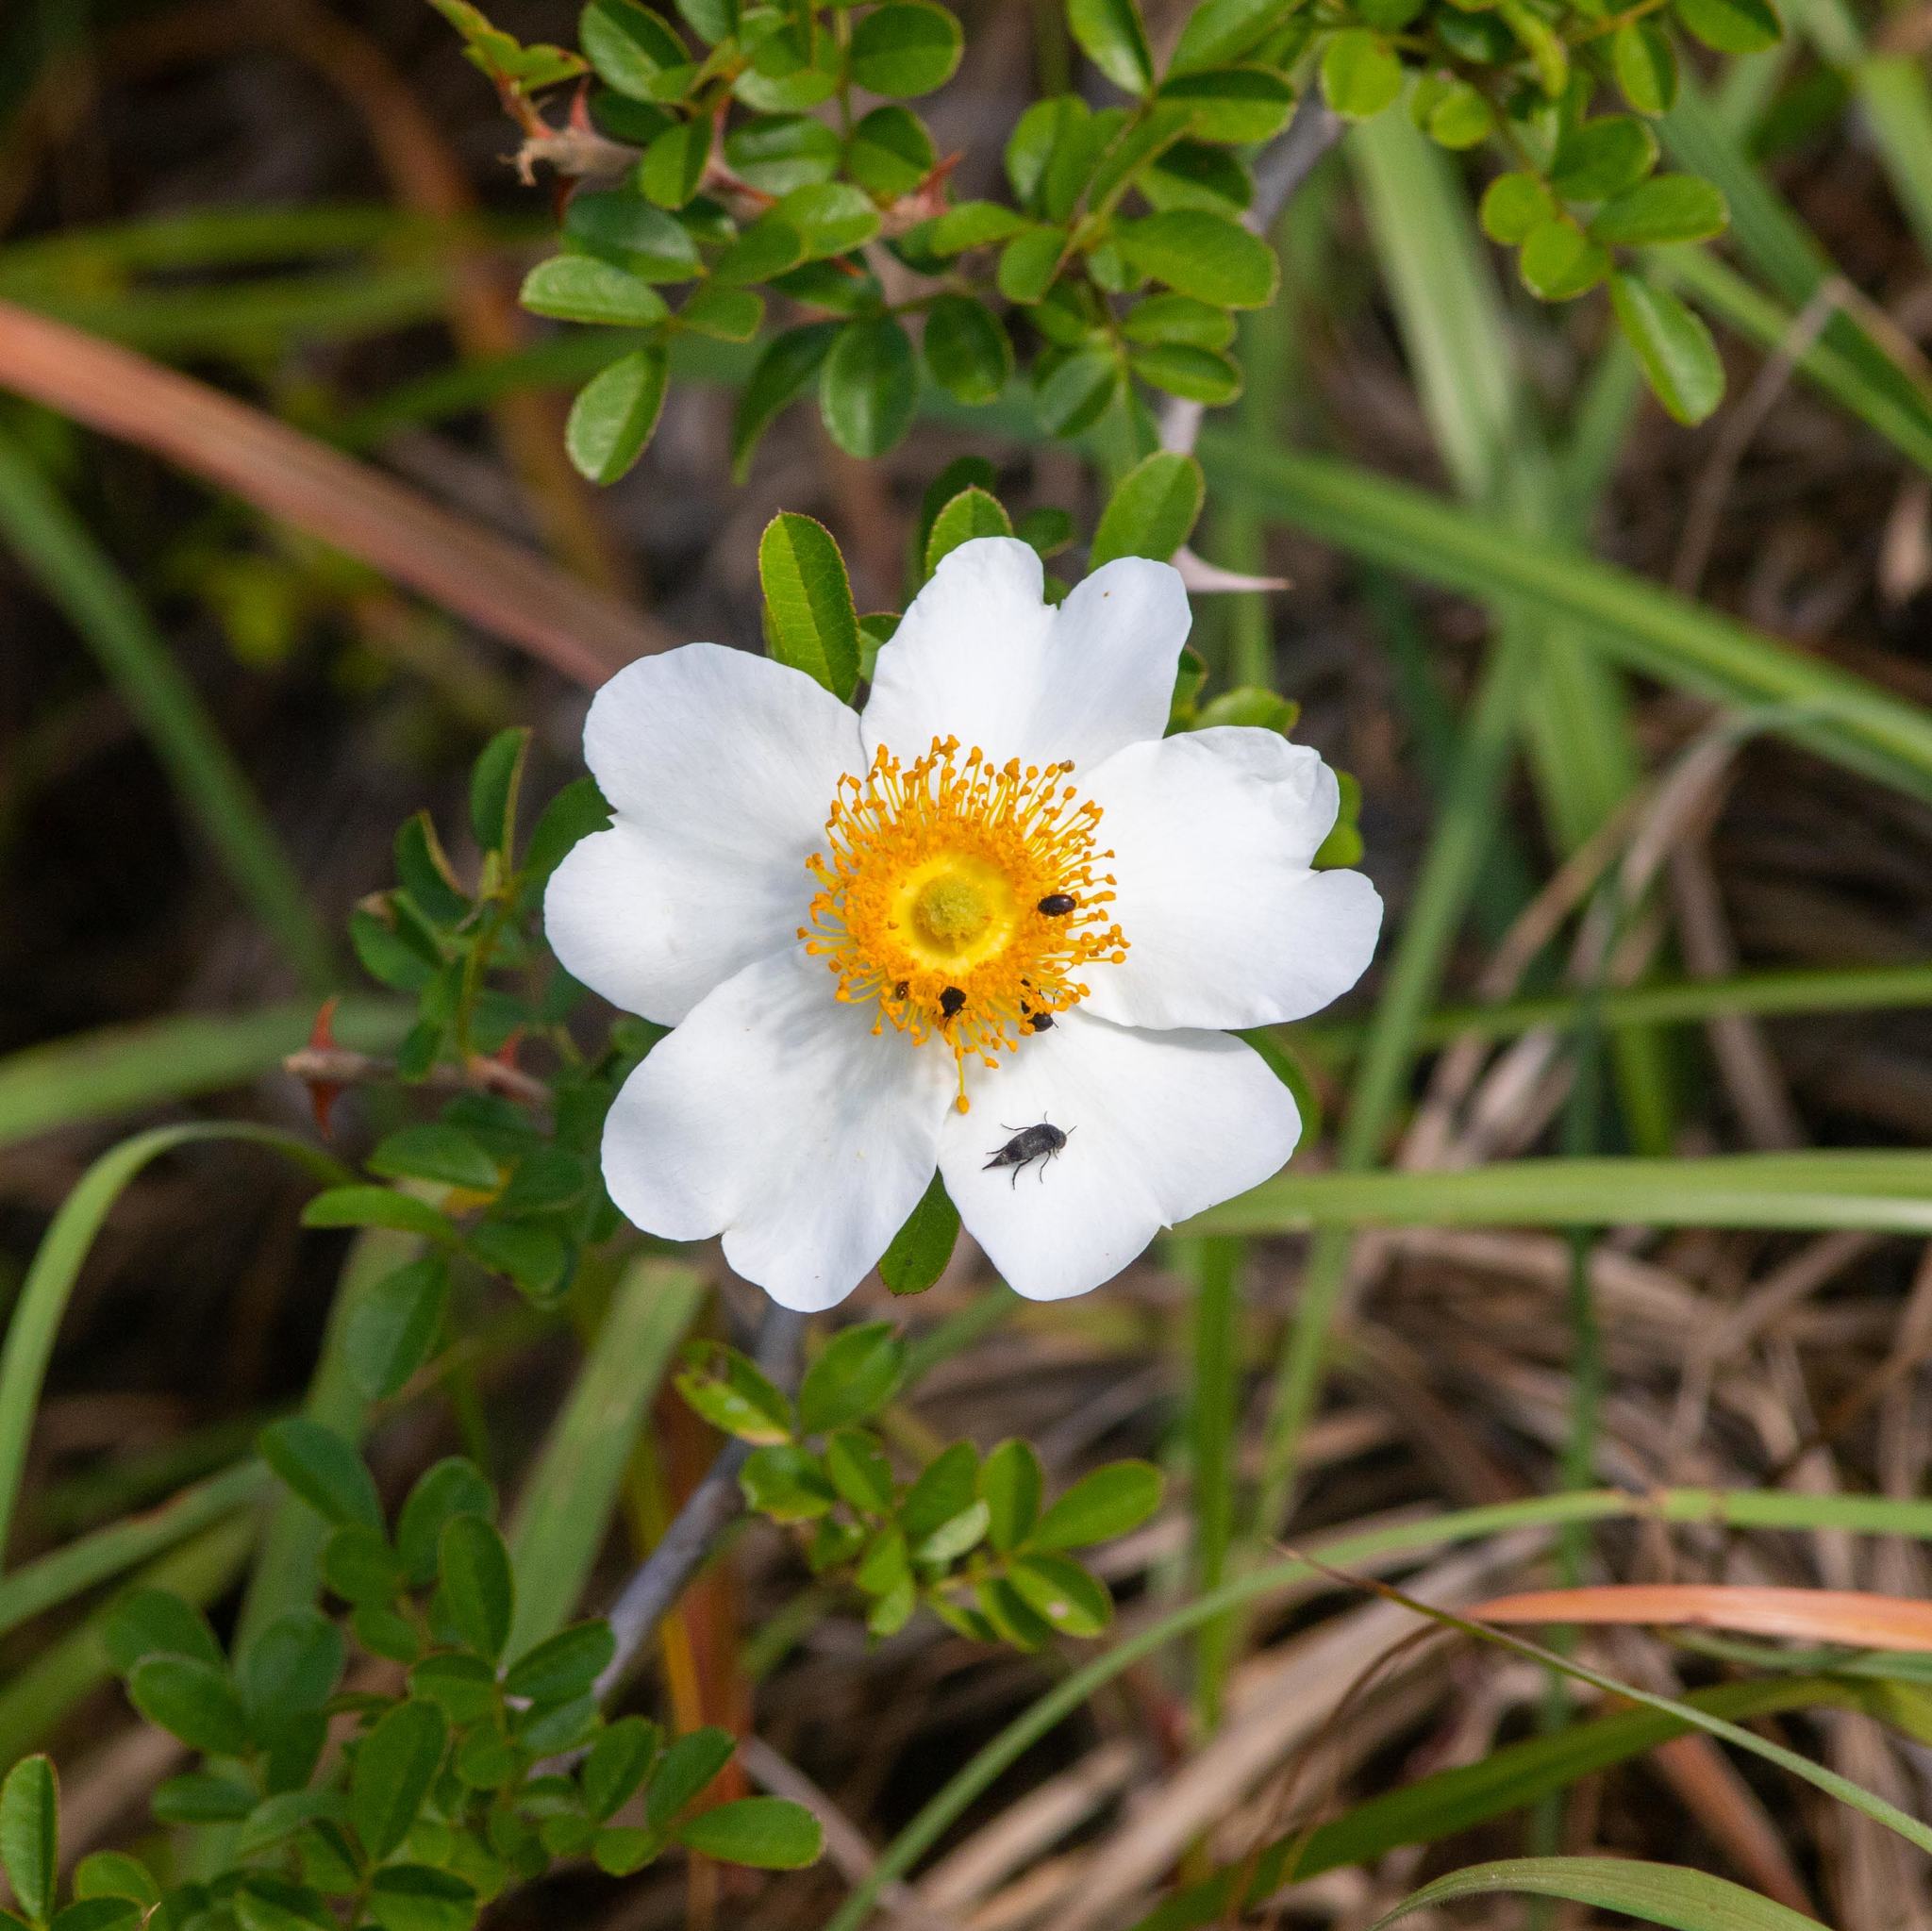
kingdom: Plantae
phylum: Tracheophyta
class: Magnoliopsida
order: Rosales
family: Rosaceae
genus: Rosa
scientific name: Rosa bracteata
